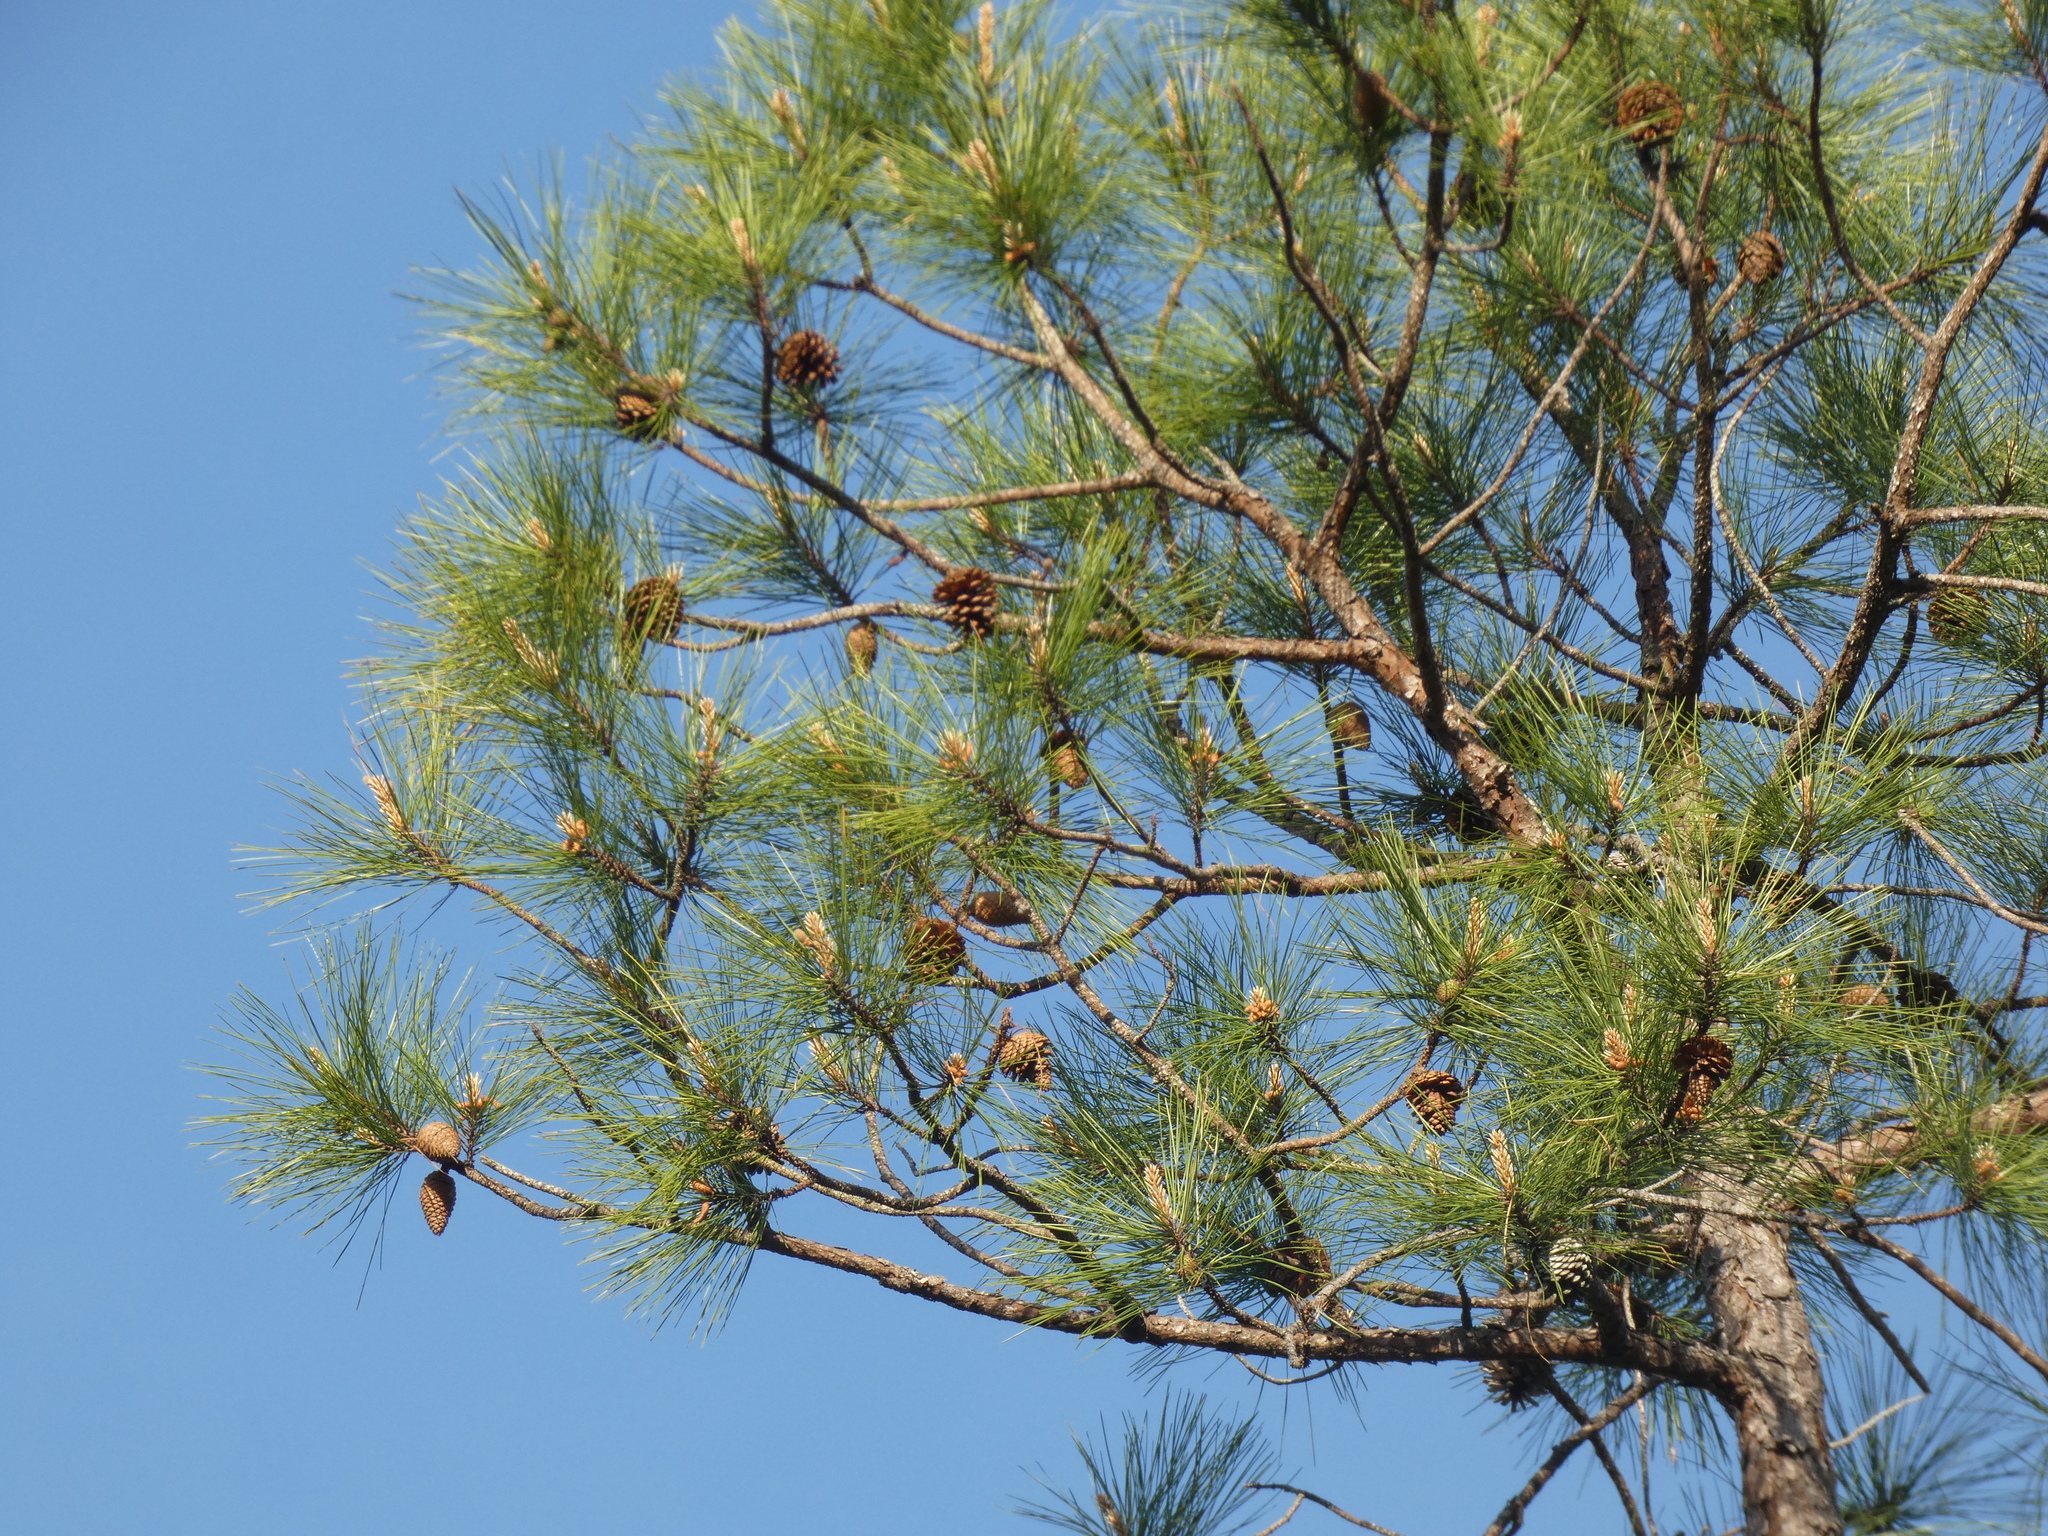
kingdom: Plantae
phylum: Tracheophyta
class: Pinopsida
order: Pinales
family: Pinaceae
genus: Pinus
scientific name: Pinus serotina
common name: Marsh pine
